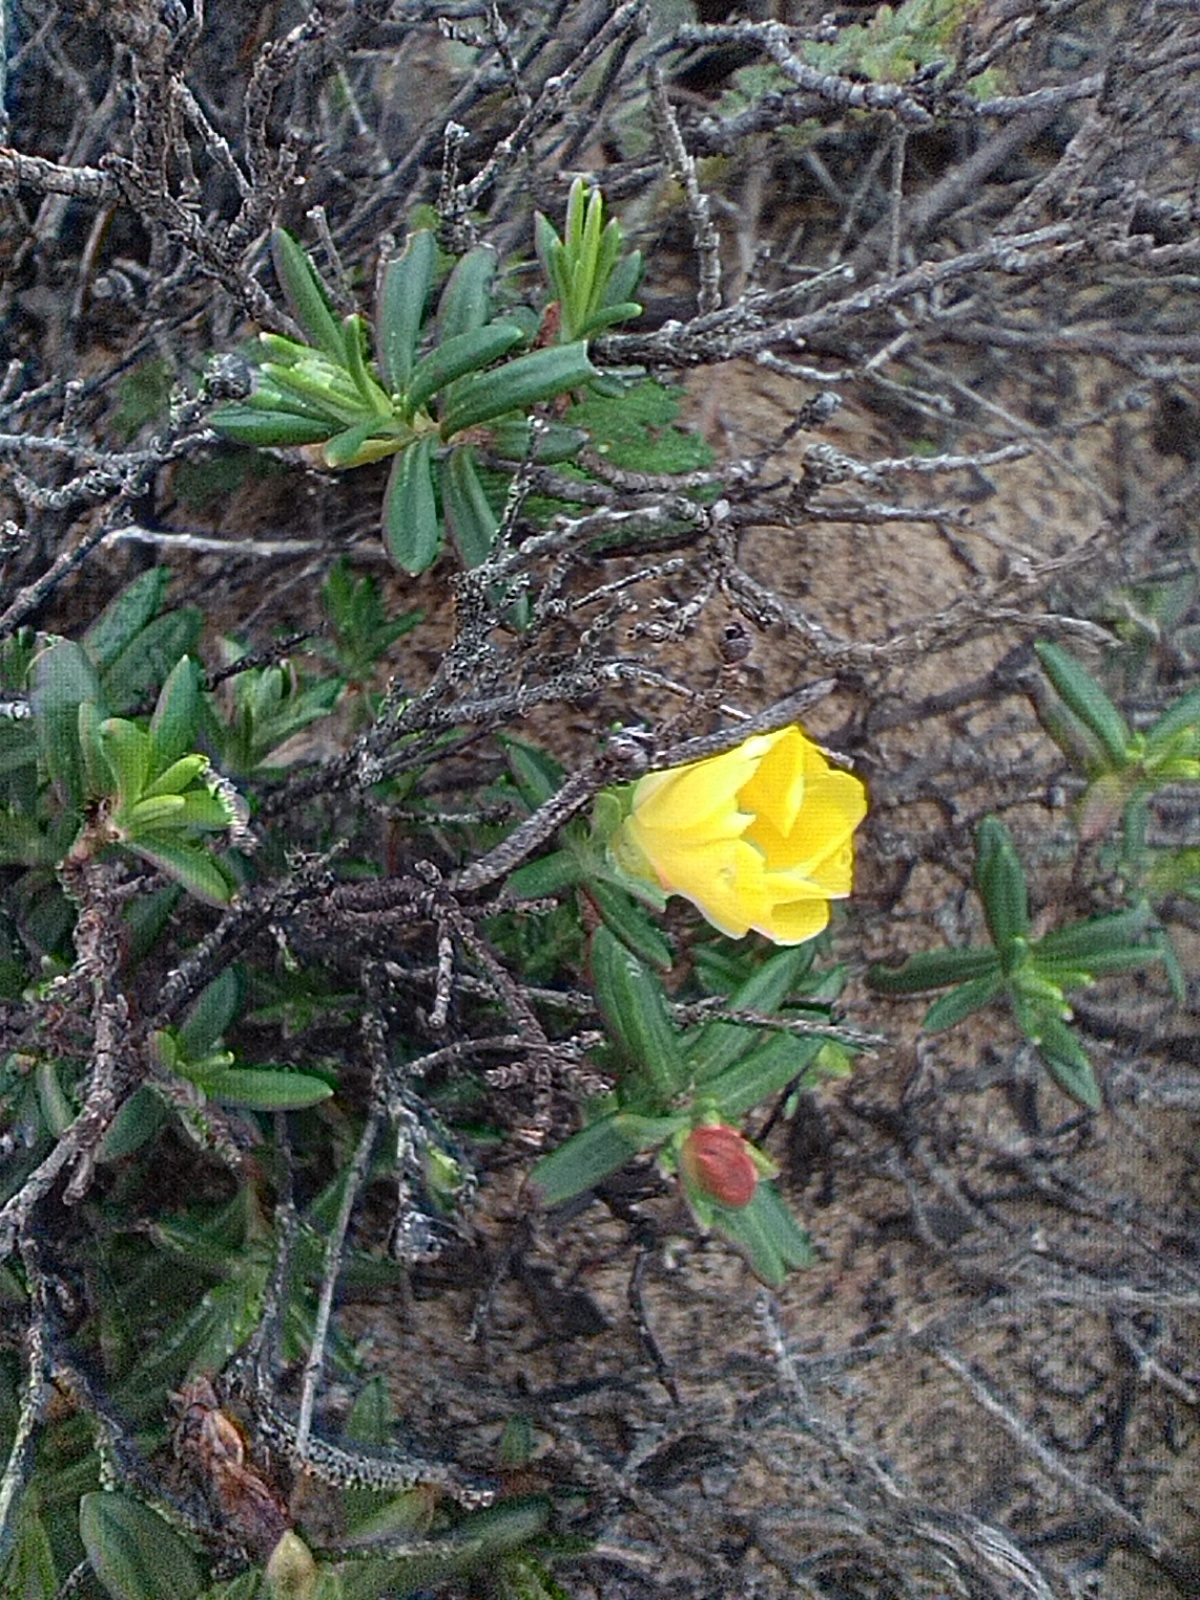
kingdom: Plantae
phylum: Tracheophyta
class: Magnoliopsida
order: Malvales
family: Cistaceae
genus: Halimium
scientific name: Halimium calycinum
